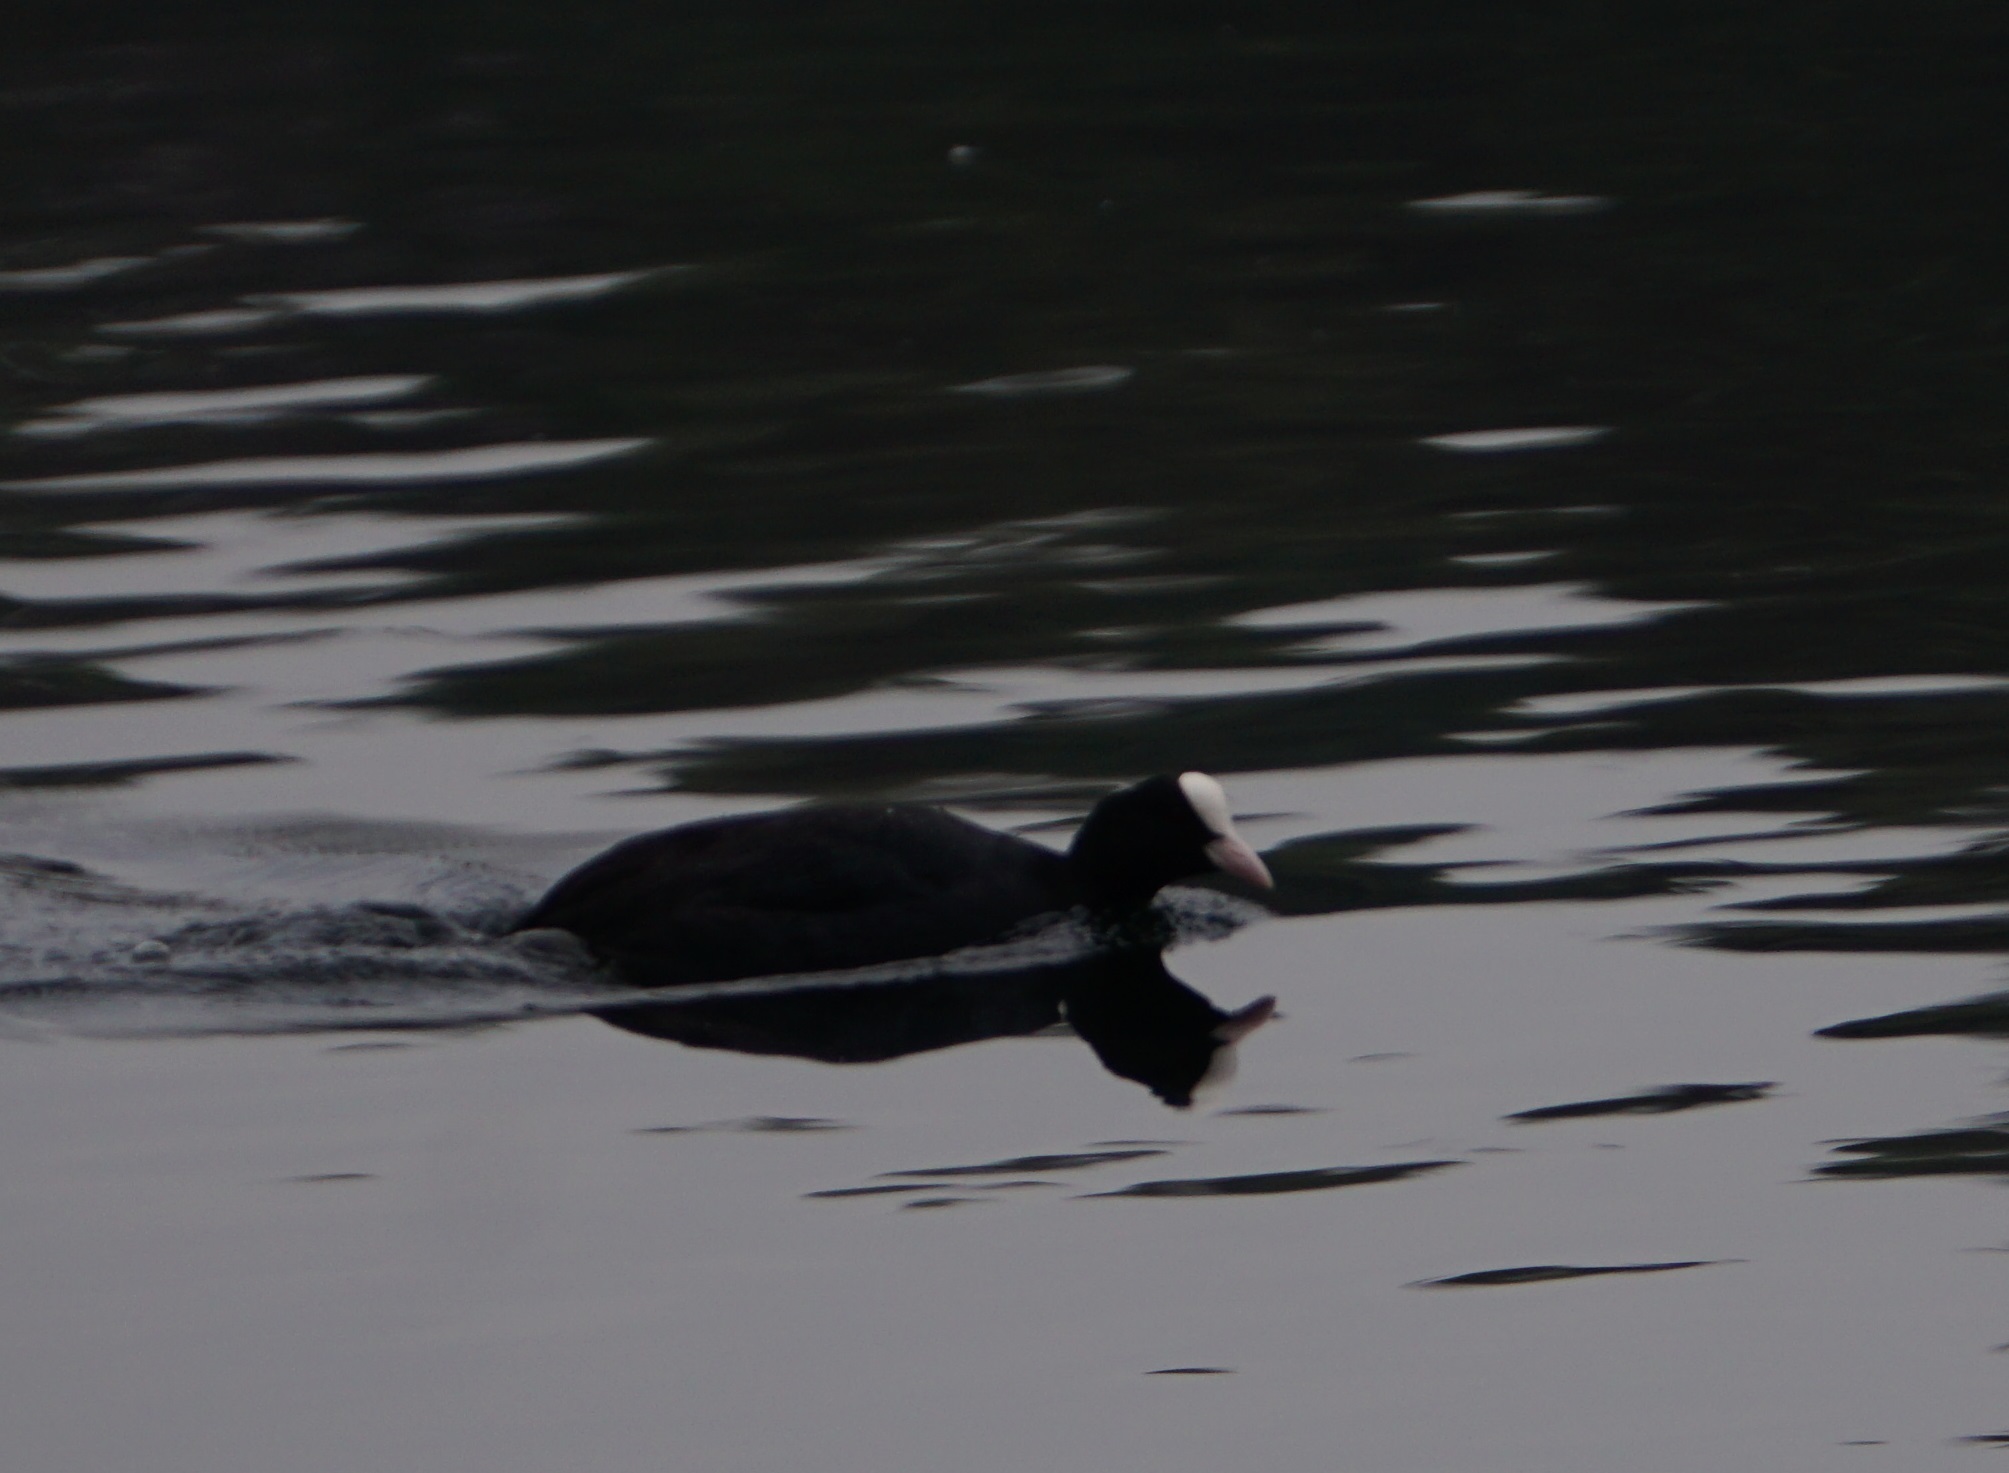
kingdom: Animalia
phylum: Chordata
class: Aves
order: Gruiformes
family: Rallidae
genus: Fulica
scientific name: Fulica atra
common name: Eurasian coot
